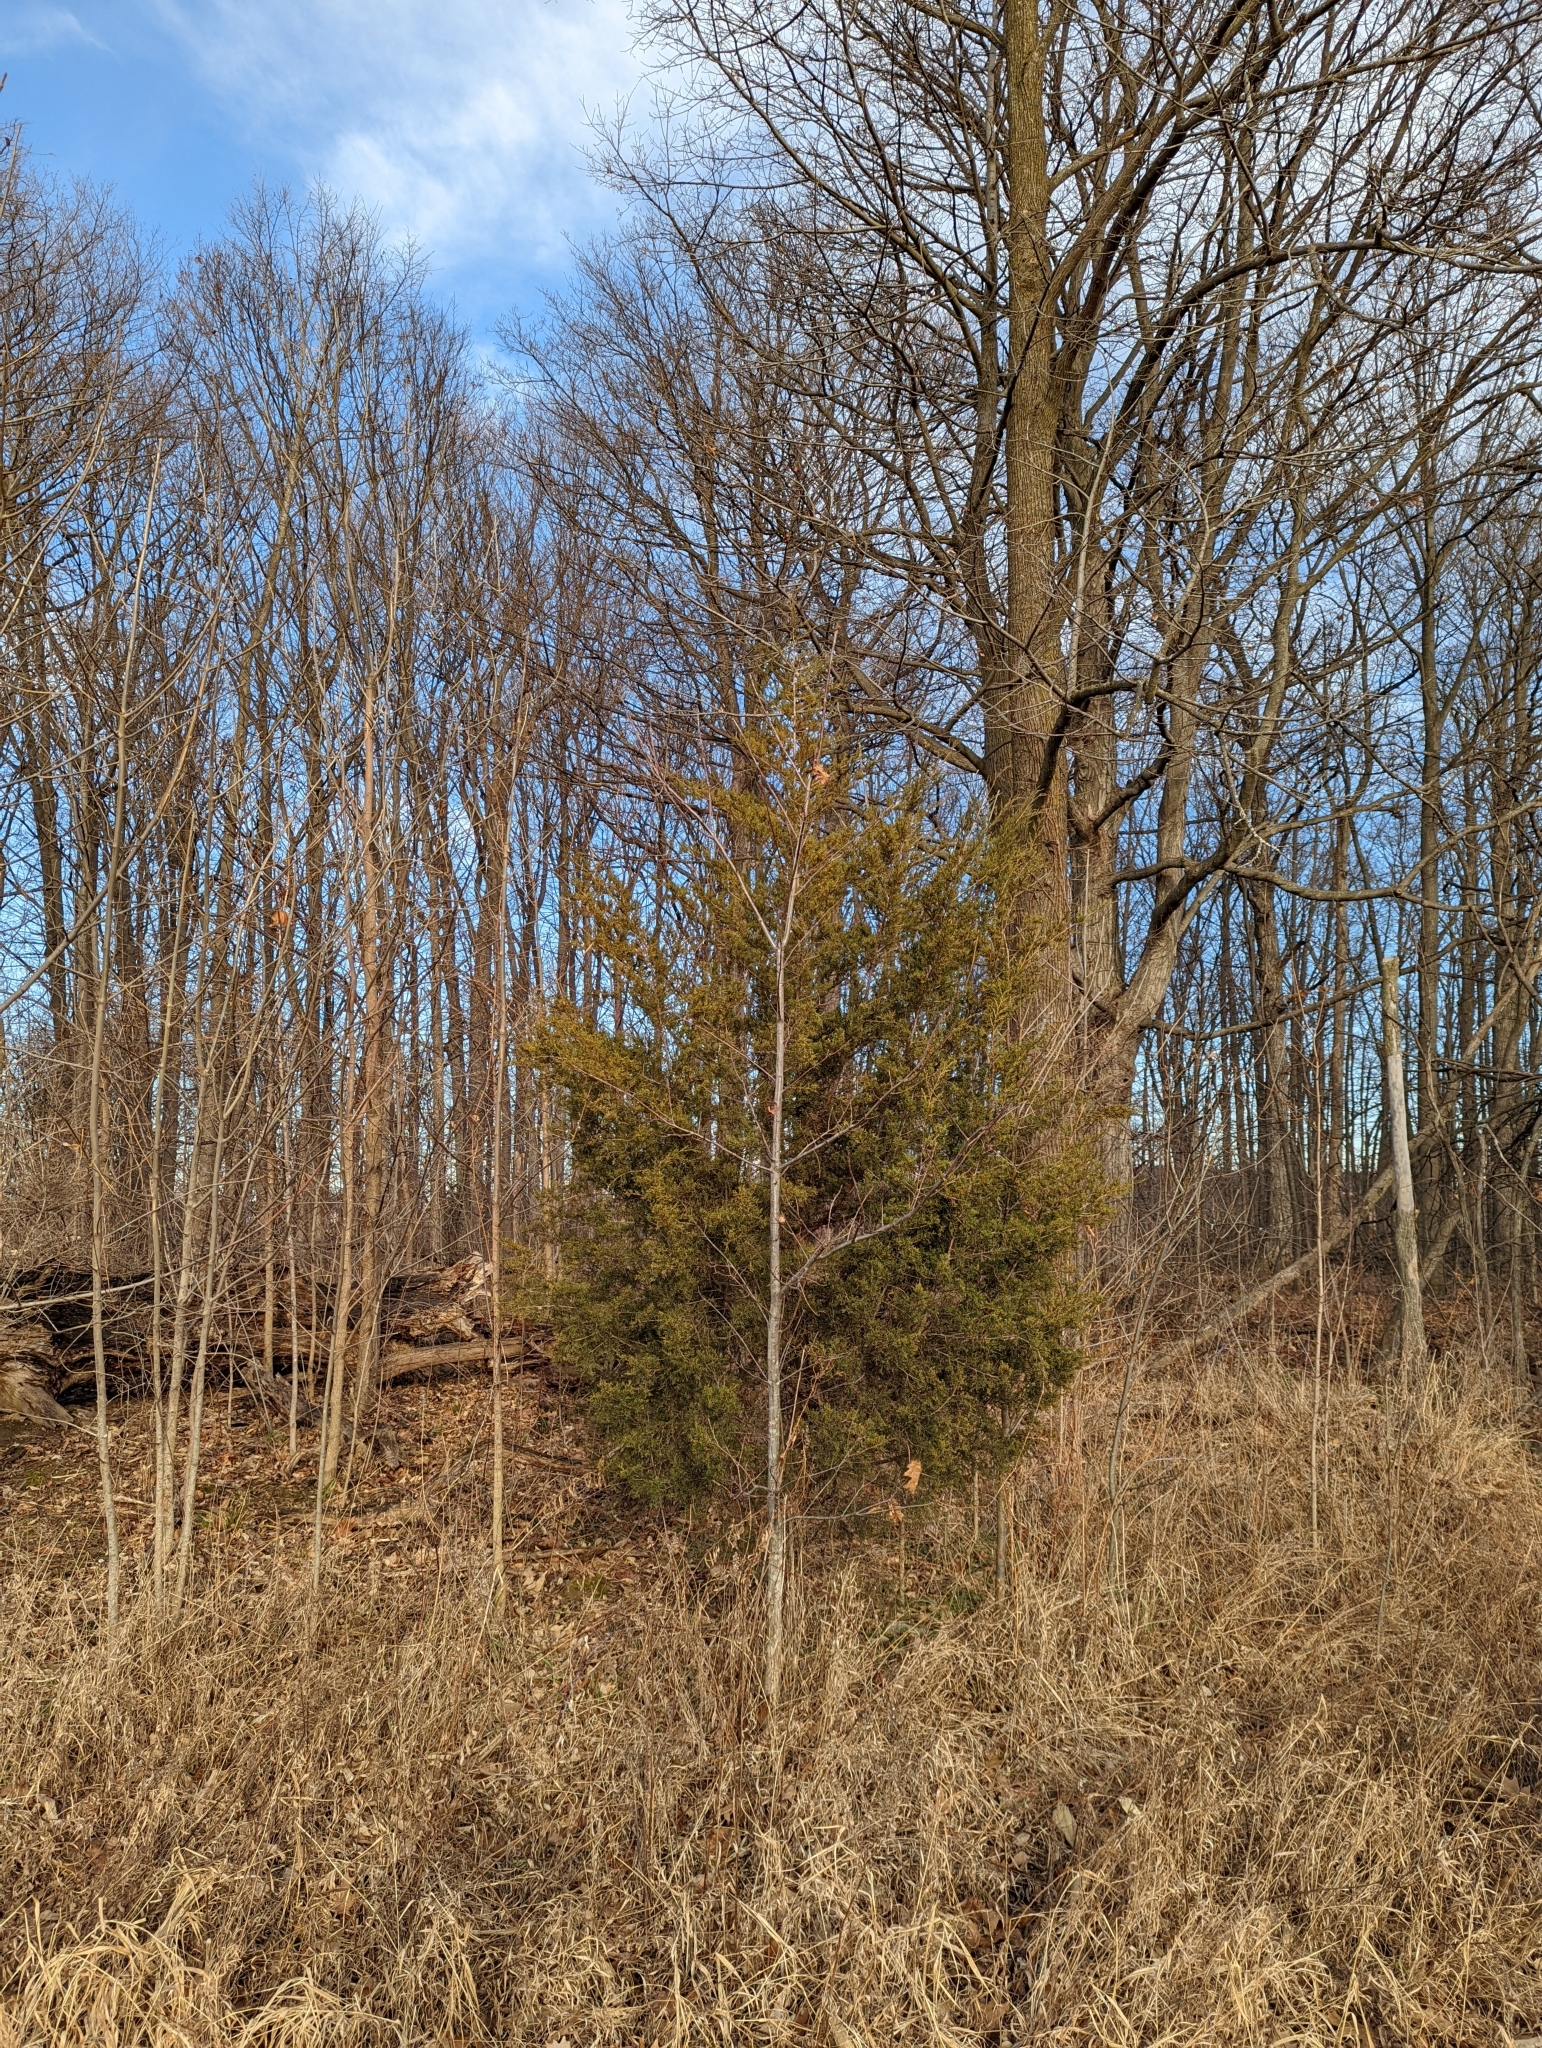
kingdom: Plantae
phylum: Tracheophyta
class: Pinopsida
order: Pinales
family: Cupressaceae
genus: Juniperus
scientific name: Juniperus virginiana
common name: Red juniper
